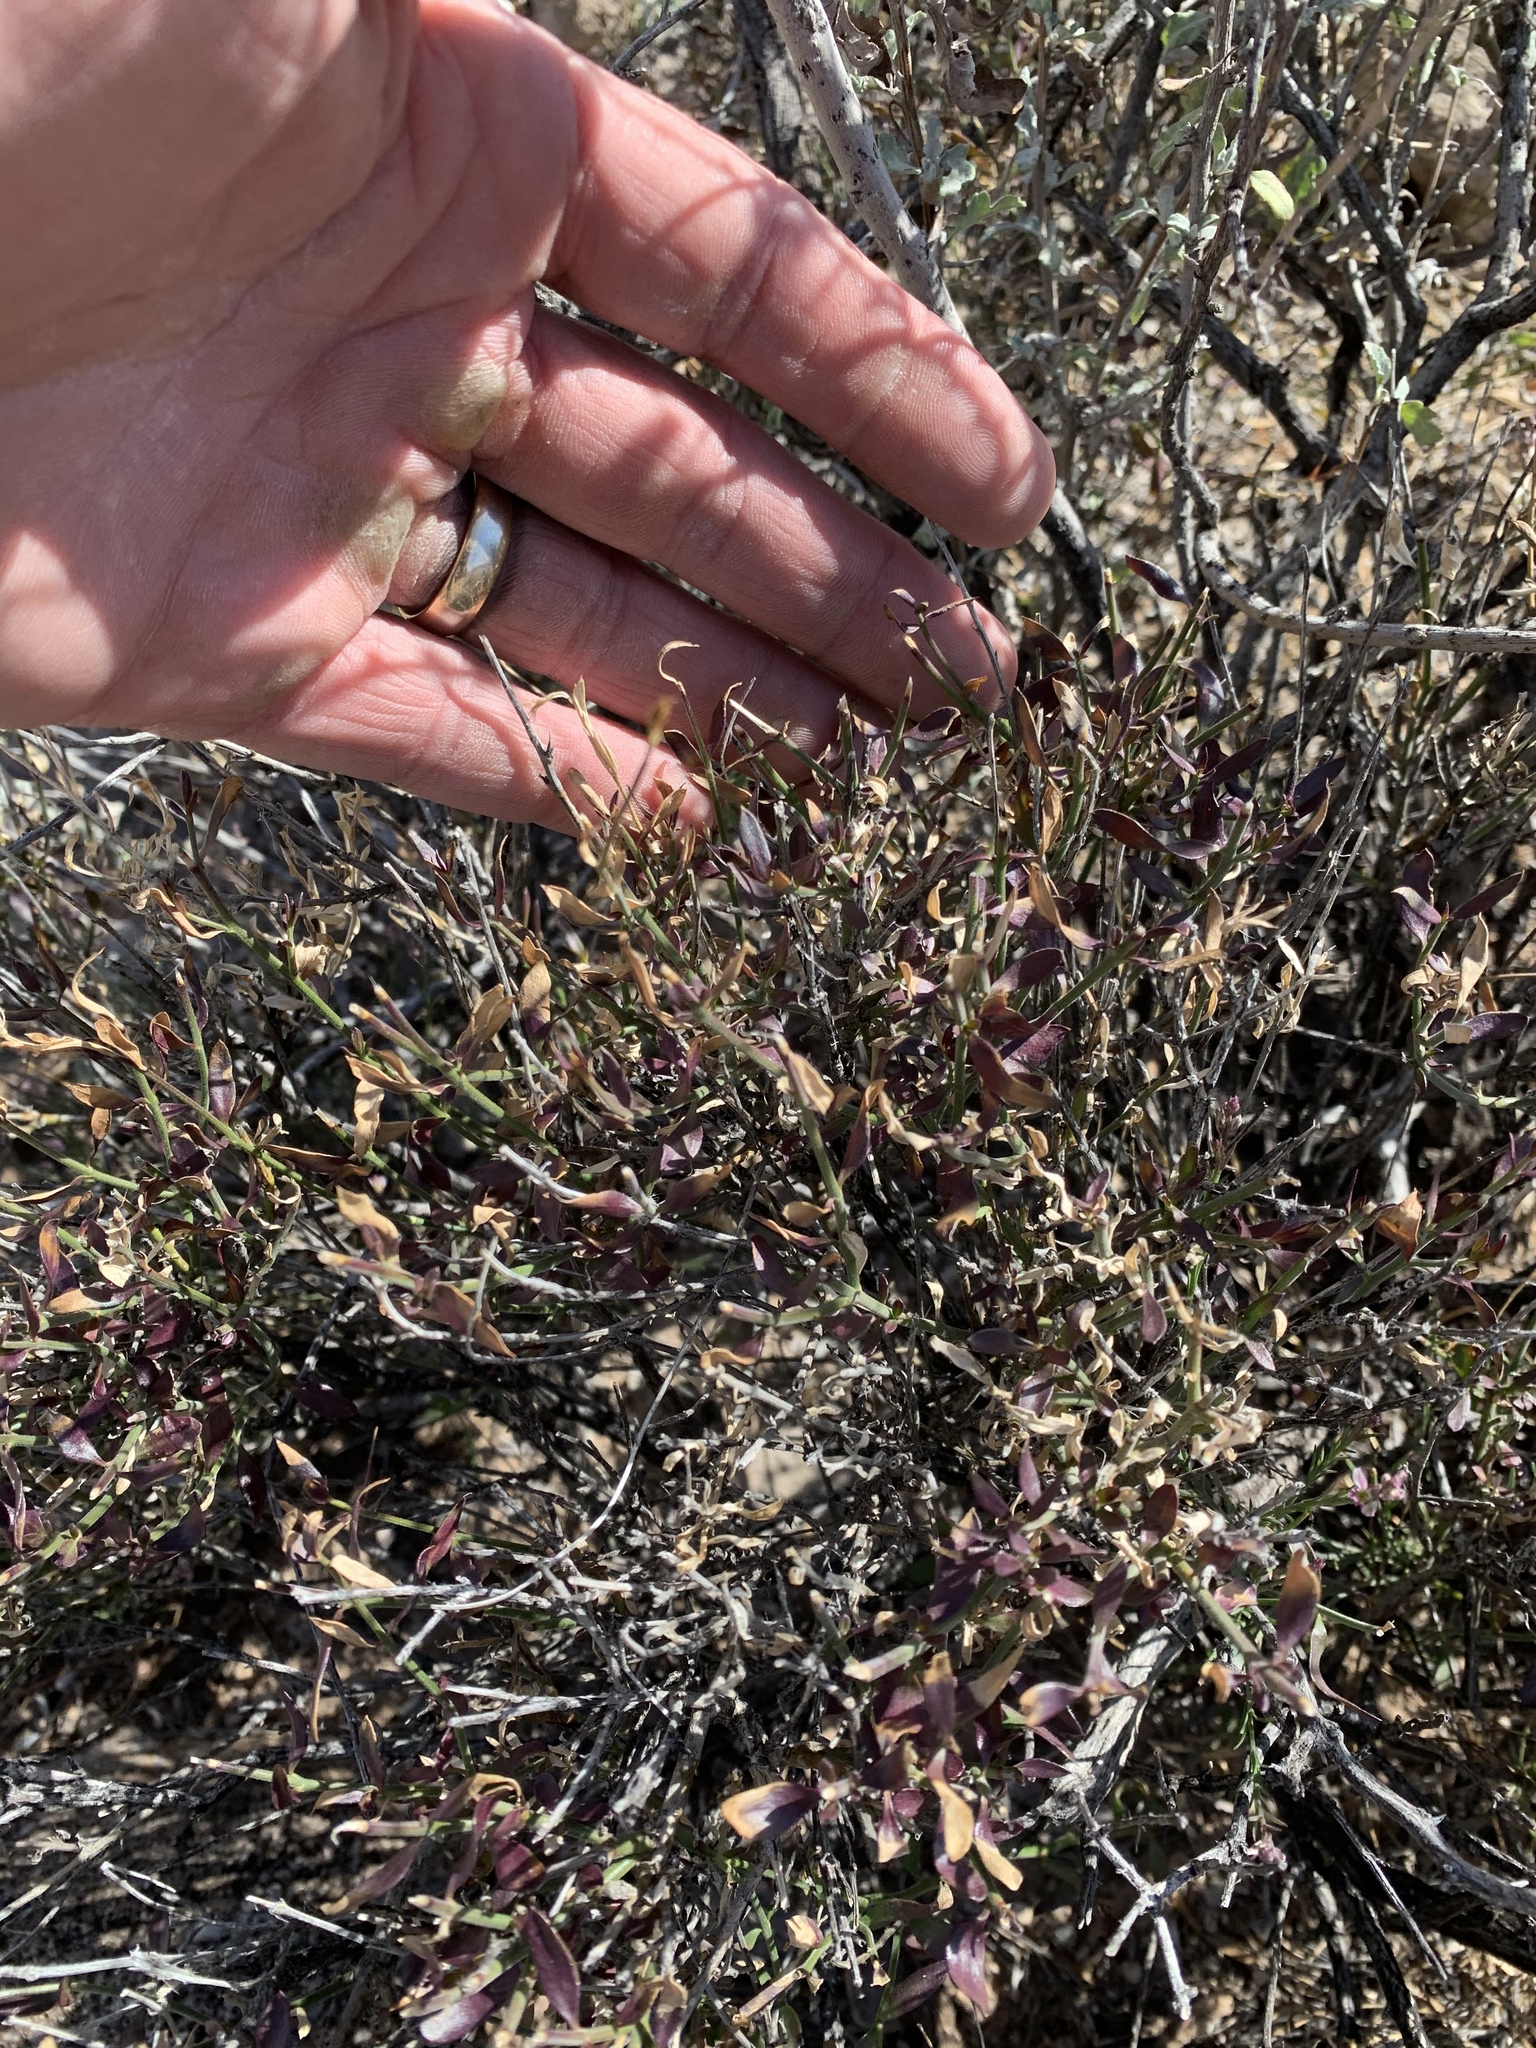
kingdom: Plantae
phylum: Tracheophyta
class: Magnoliopsida
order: Malpighiales
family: Malpighiaceae
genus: Cottsia
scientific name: Cottsia gracilis
